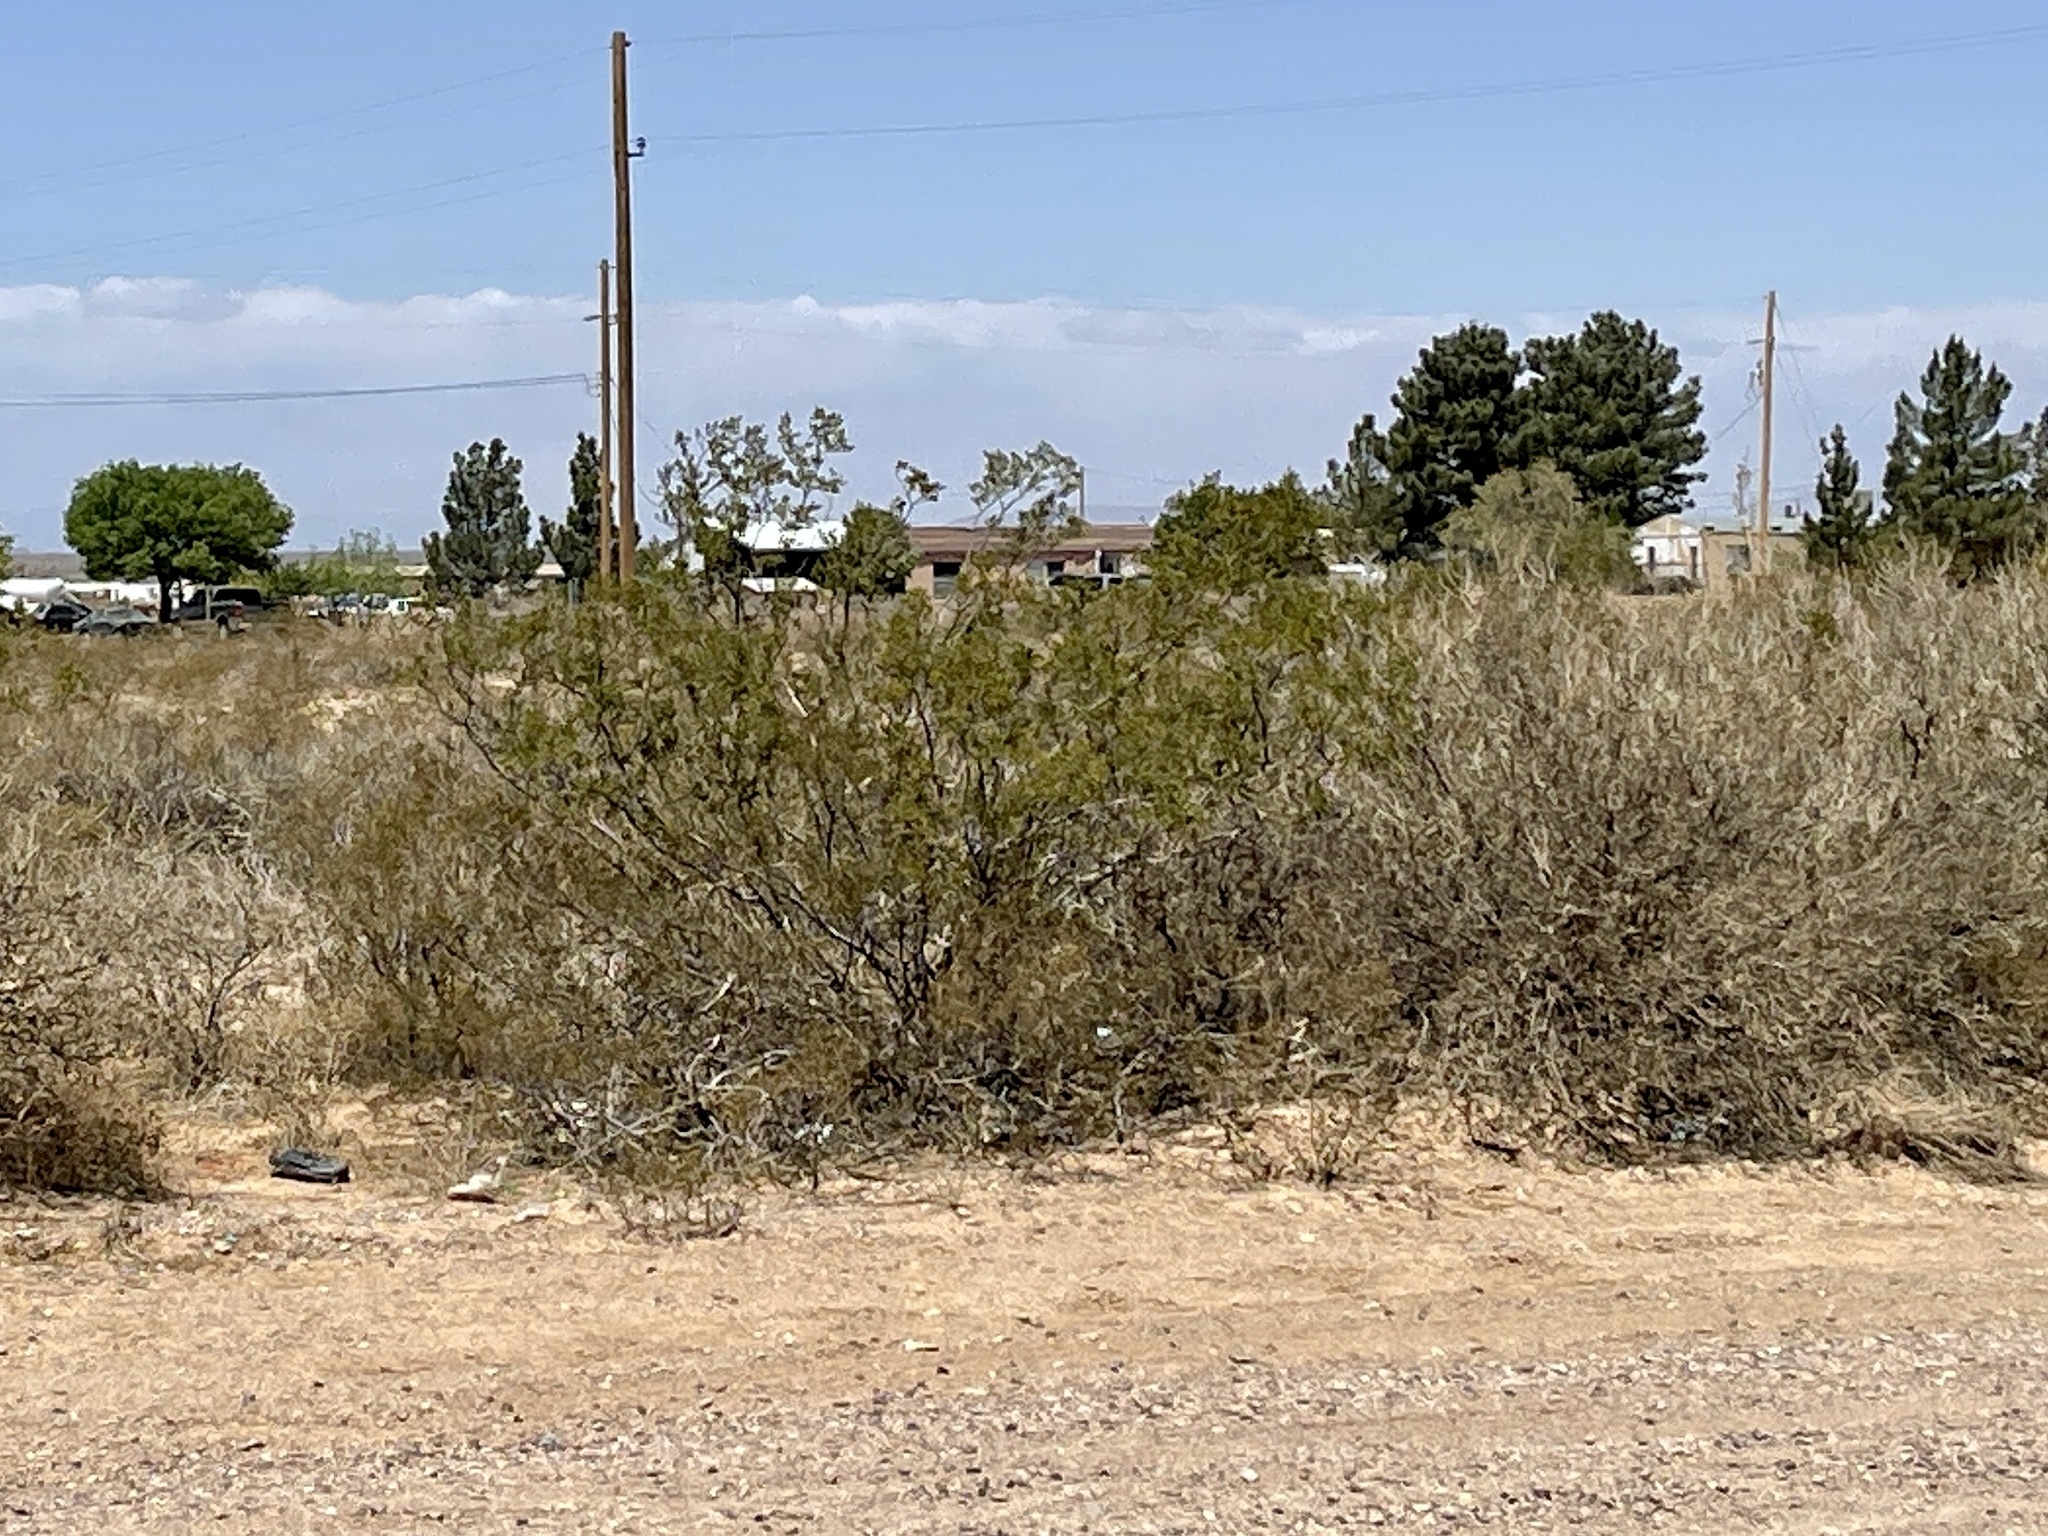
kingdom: Plantae
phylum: Tracheophyta
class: Magnoliopsida
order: Zygophyllales
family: Zygophyllaceae
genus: Larrea
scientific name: Larrea tridentata
